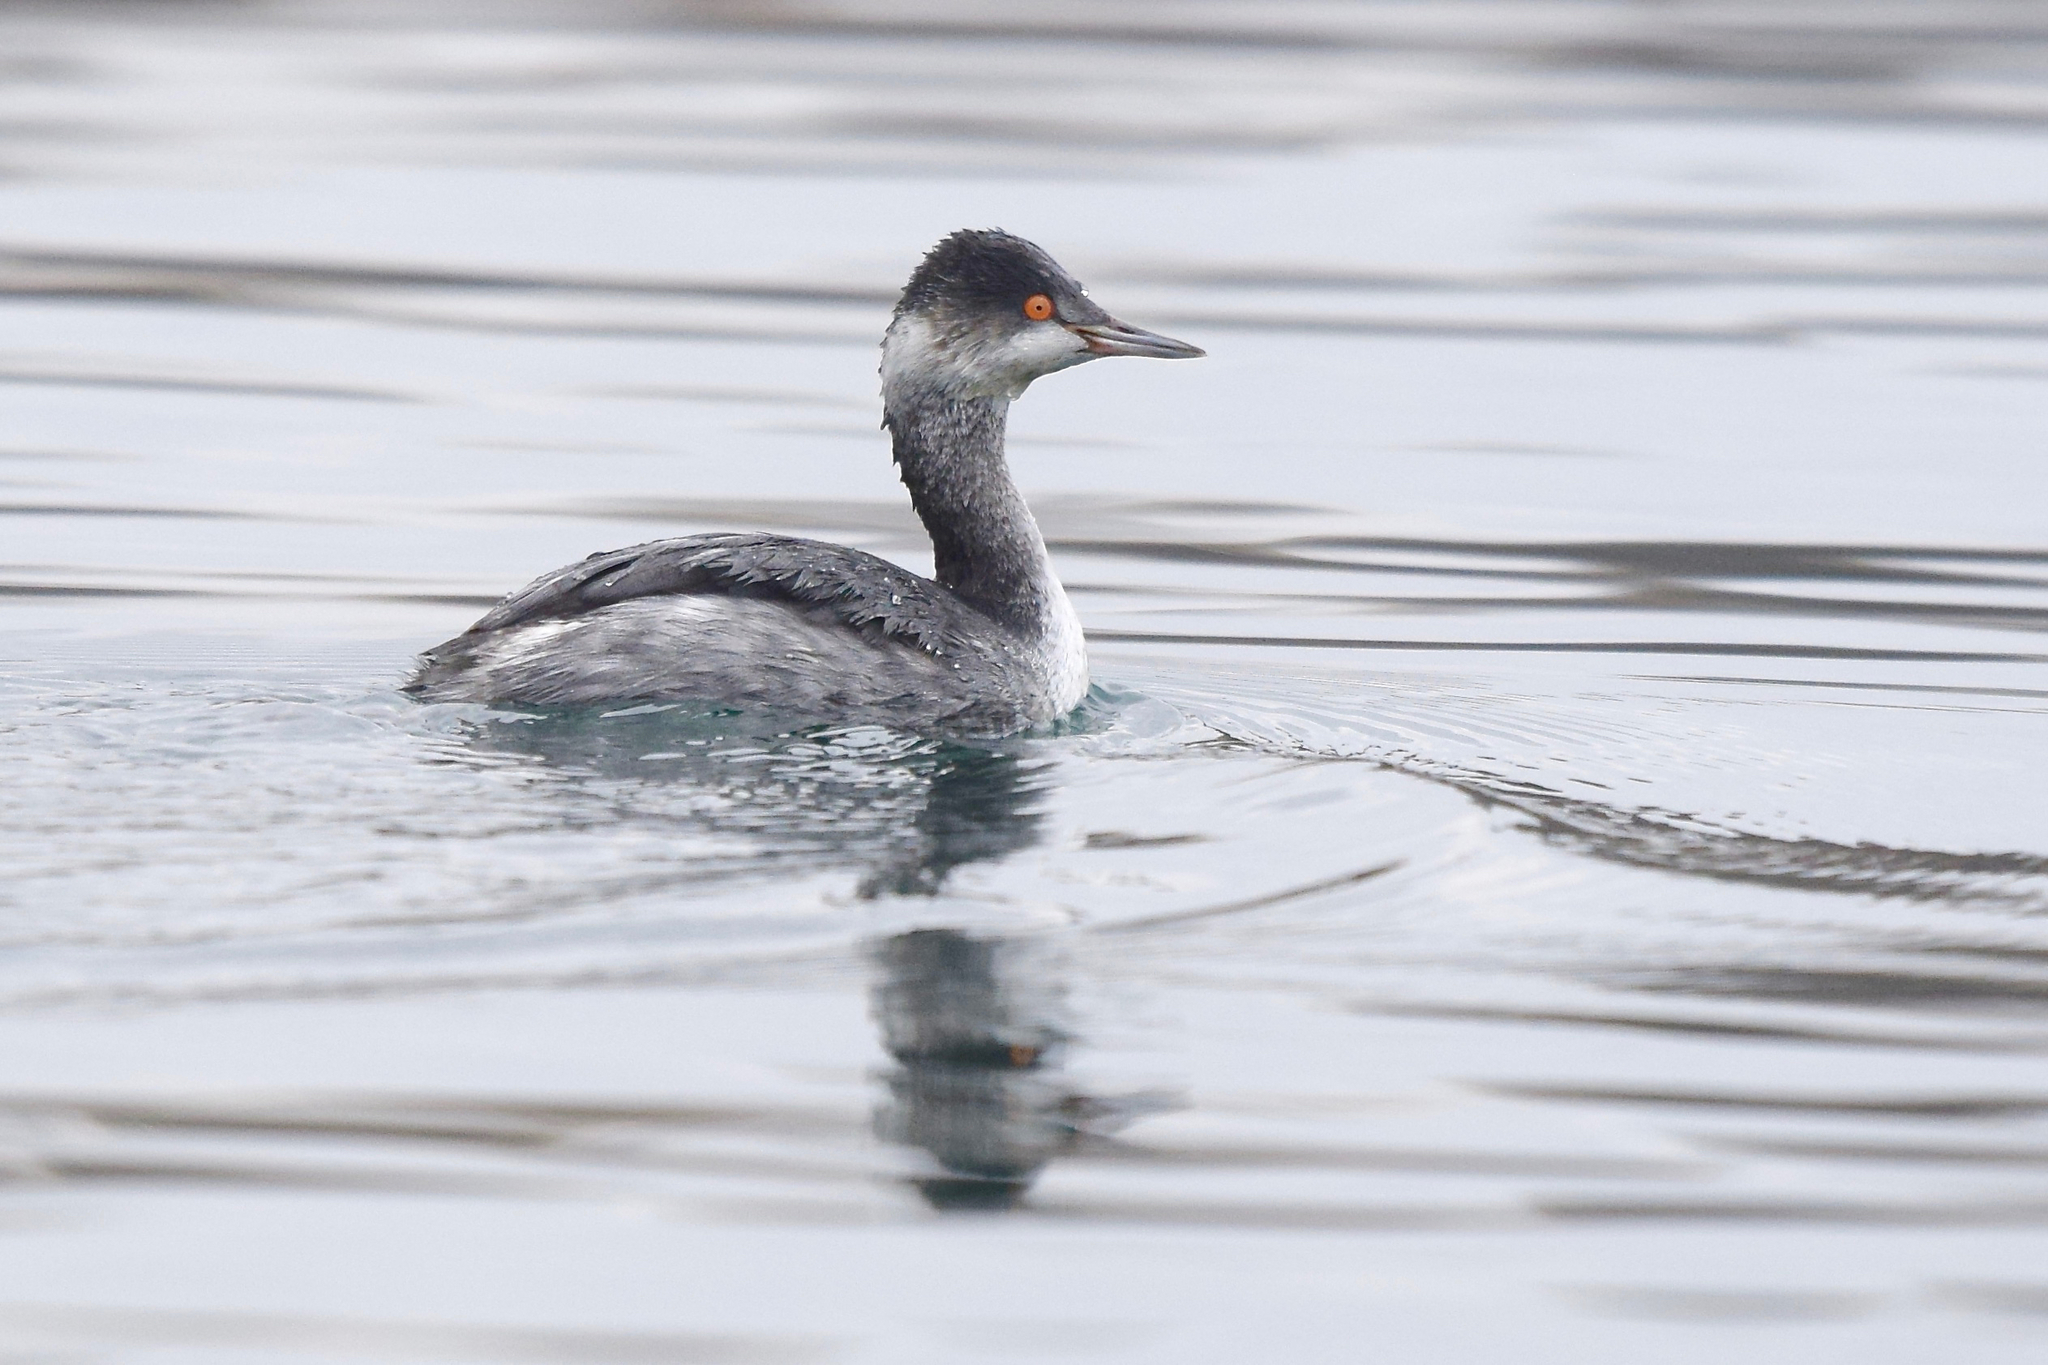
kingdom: Animalia
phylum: Chordata
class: Aves
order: Podicipediformes
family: Podicipedidae
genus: Podiceps
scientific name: Podiceps nigricollis
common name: Black-necked grebe
